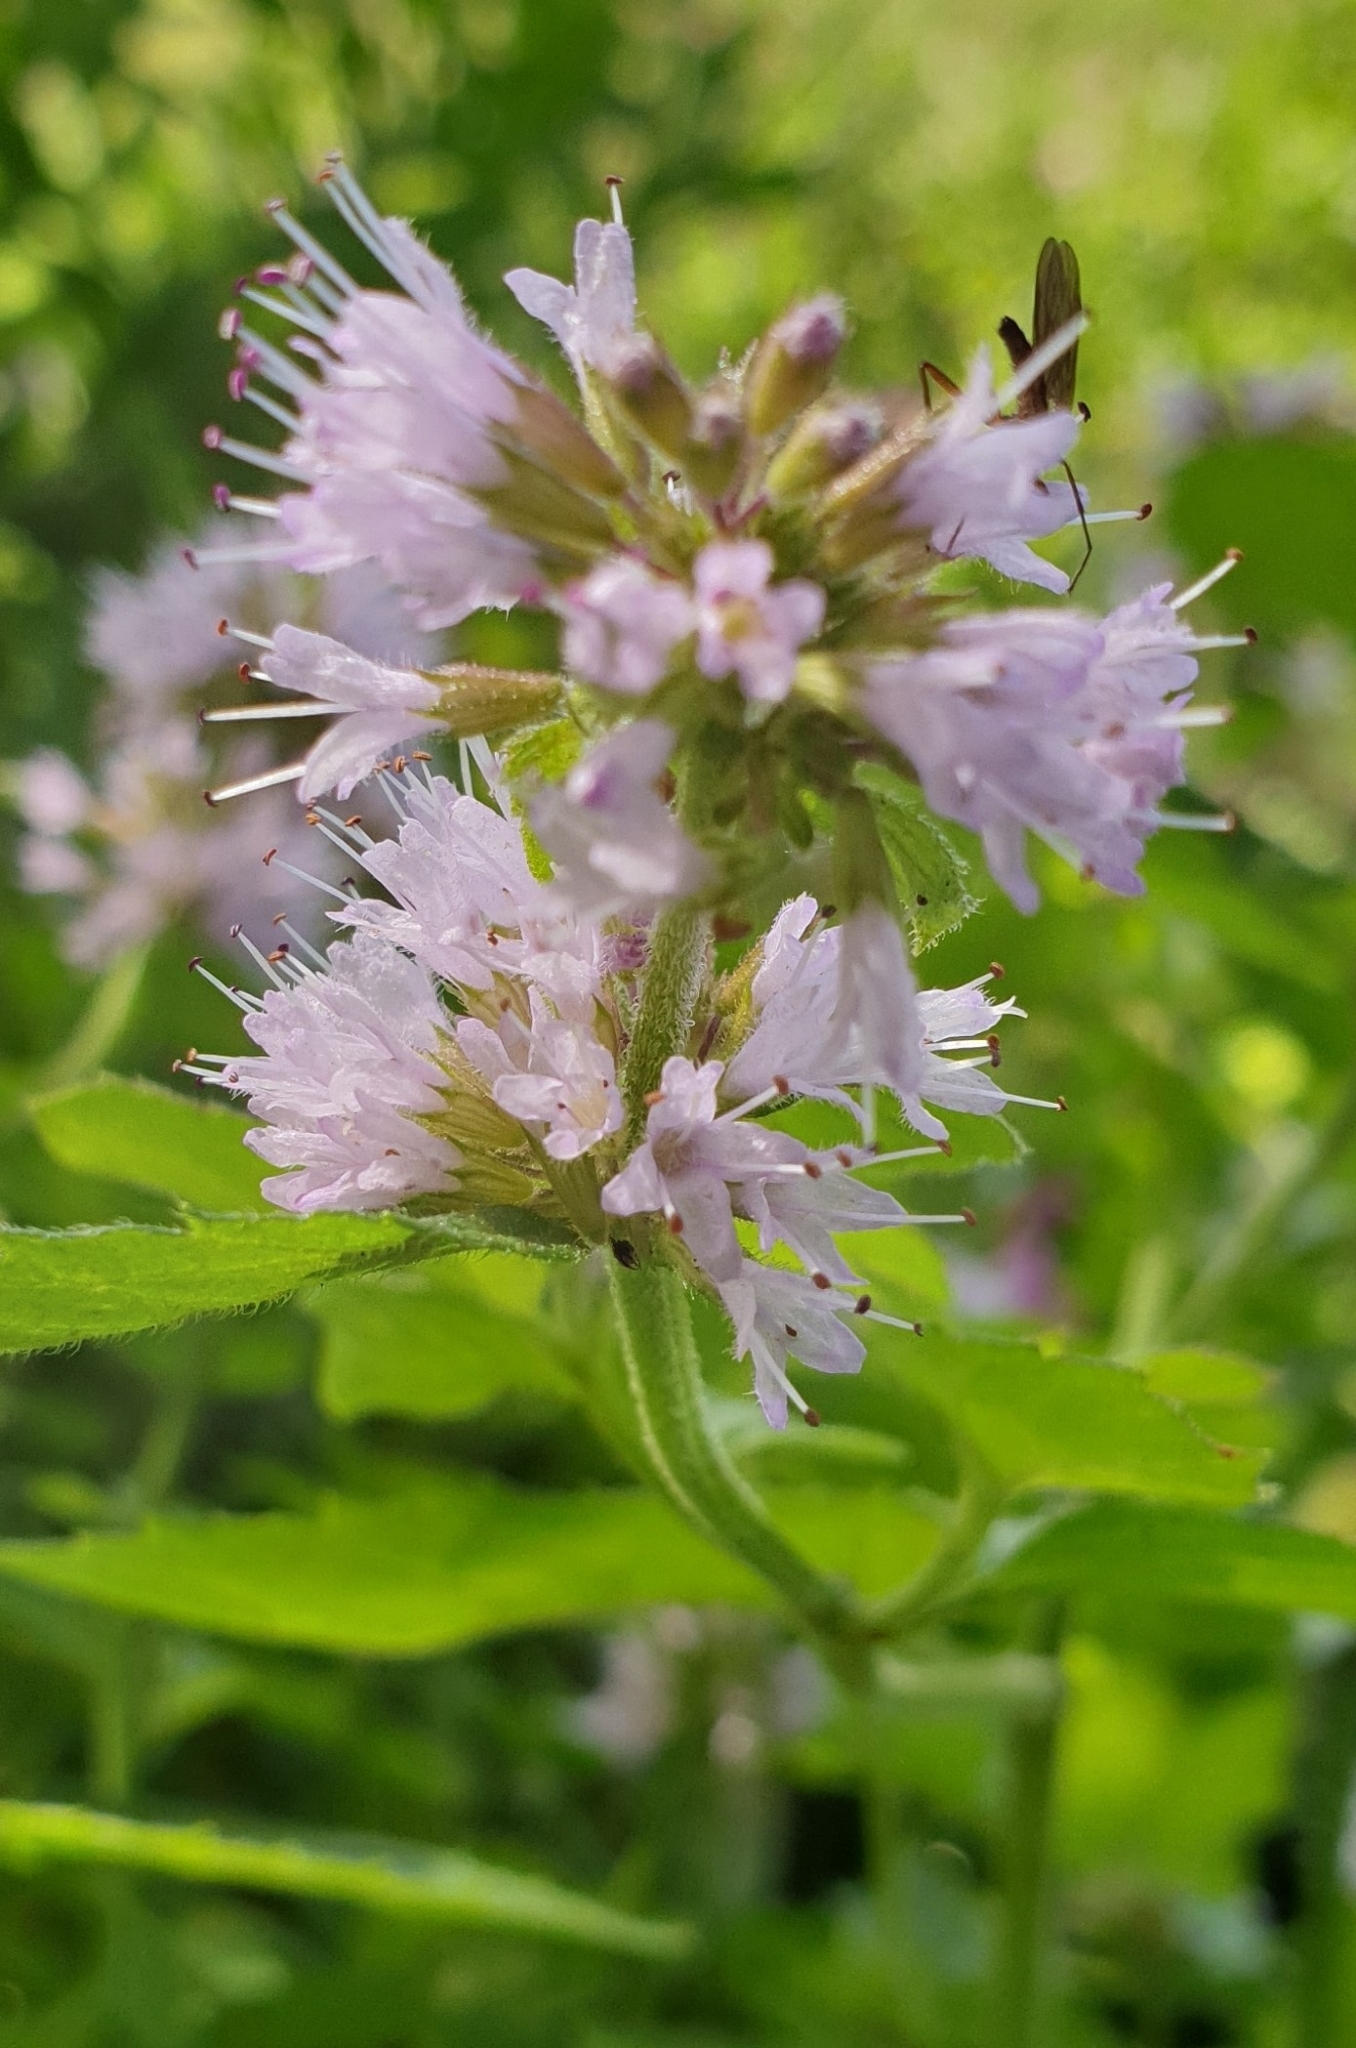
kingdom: Plantae
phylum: Tracheophyta
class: Magnoliopsida
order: Lamiales
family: Lamiaceae
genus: Mentha
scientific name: Mentha aquatica
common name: Water mint
